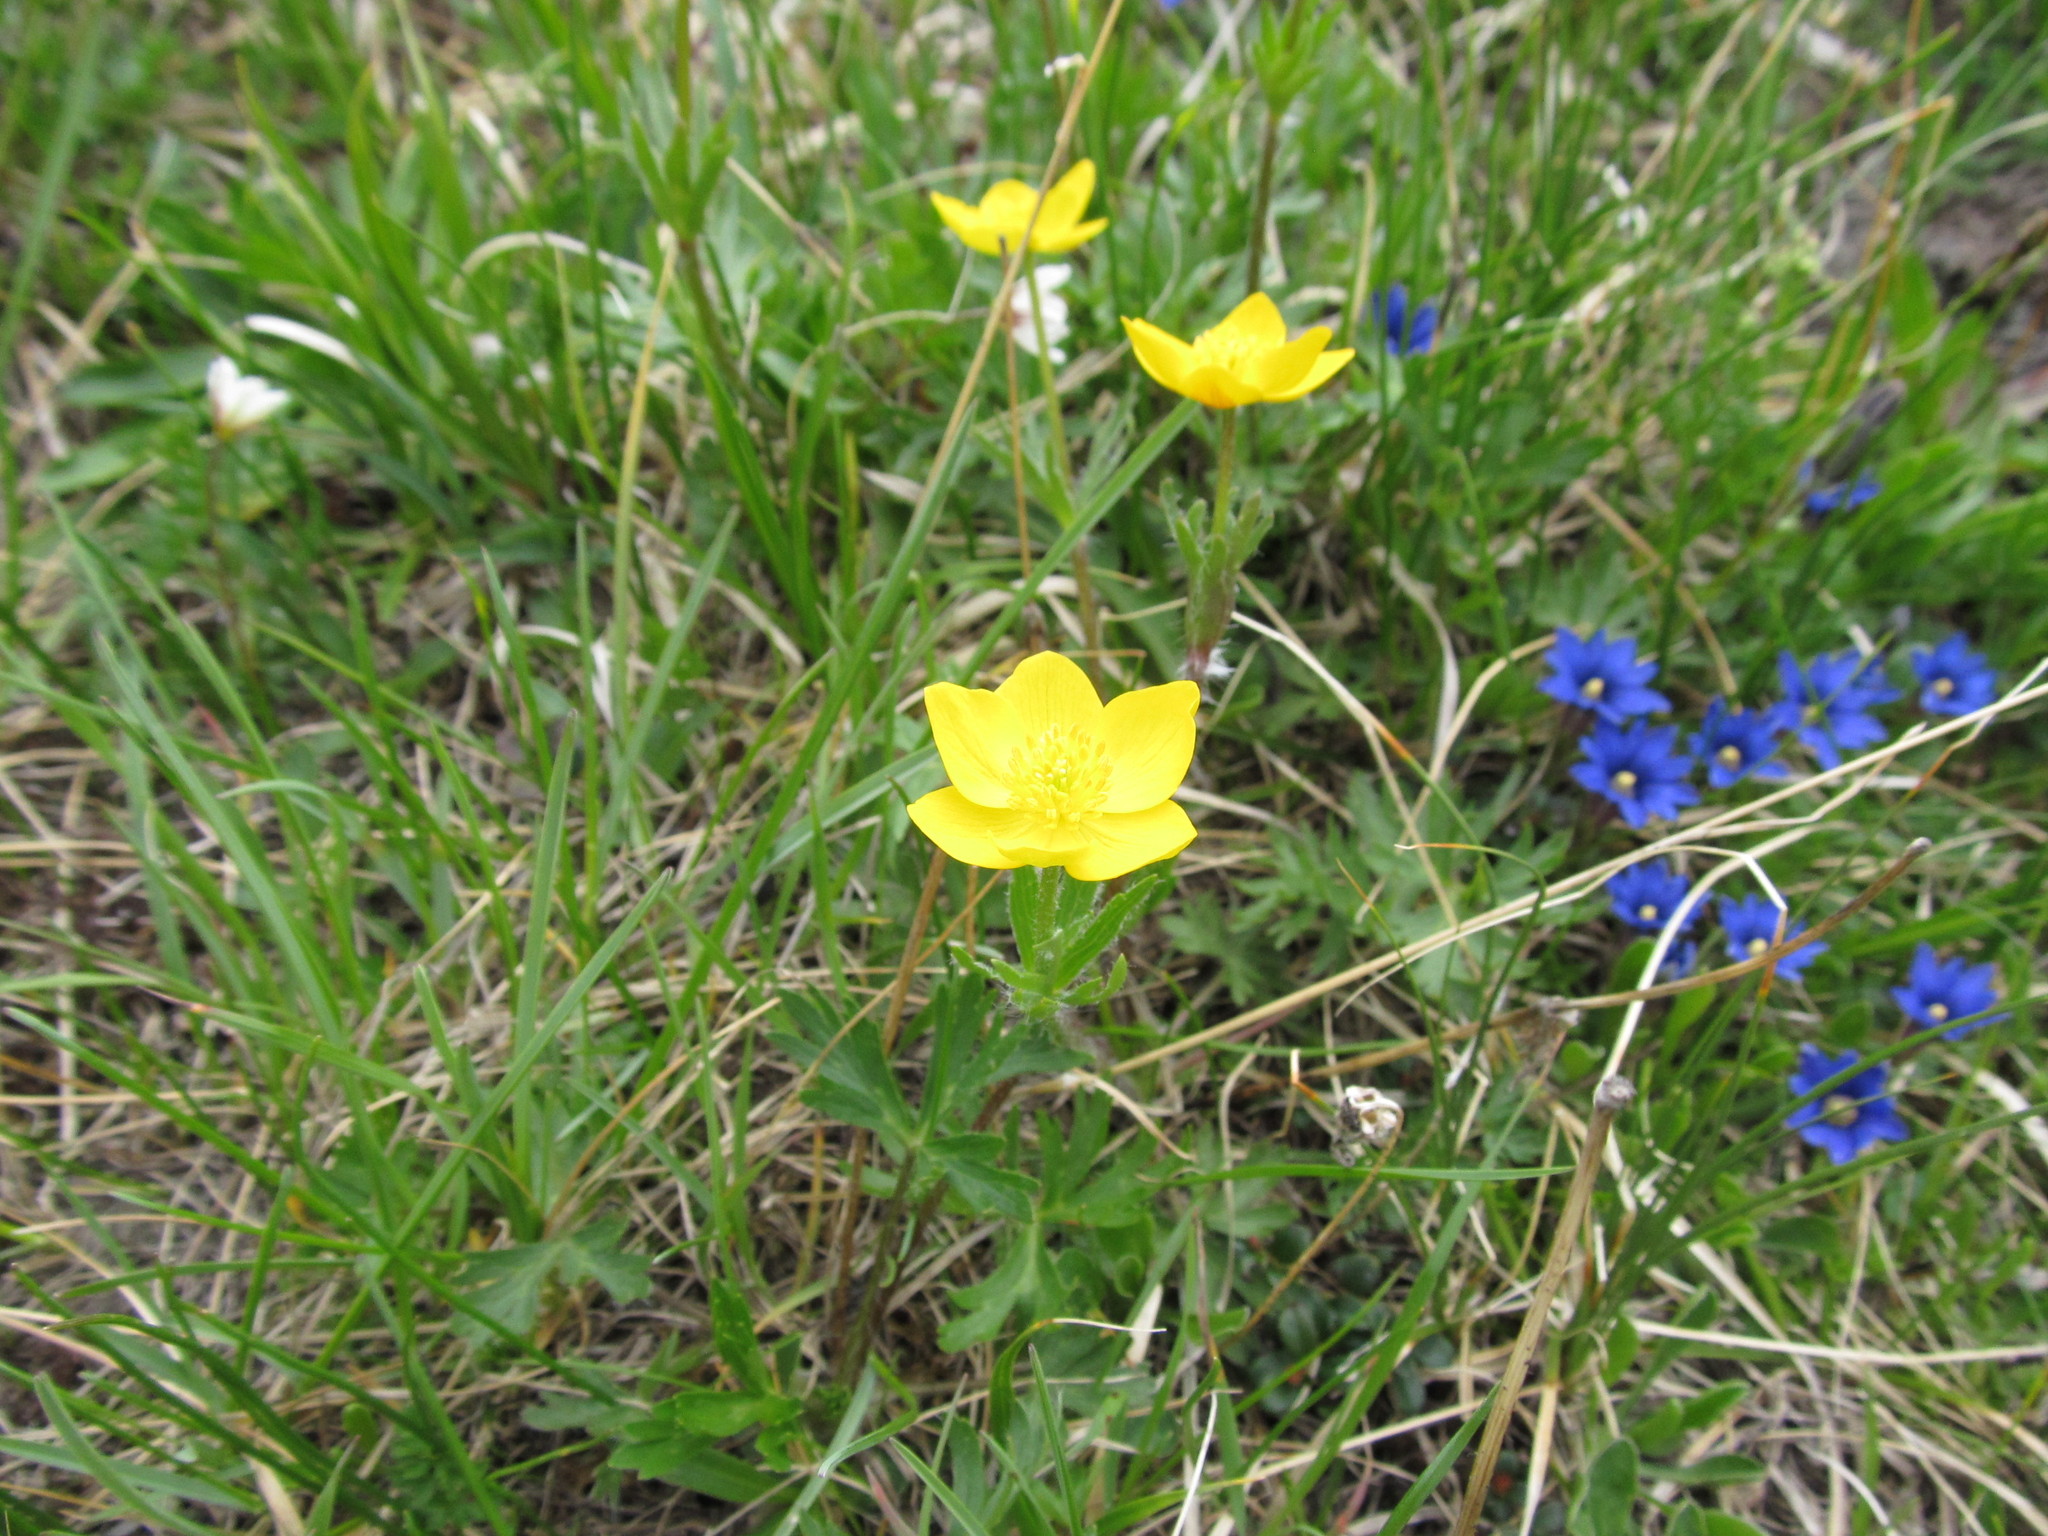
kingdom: Plantae
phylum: Tracheophyta
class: Magnoliopsida
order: Ranunculales
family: Ranunculaceae
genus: Anemonastrum
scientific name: Anemonastrum narcissiflorum
